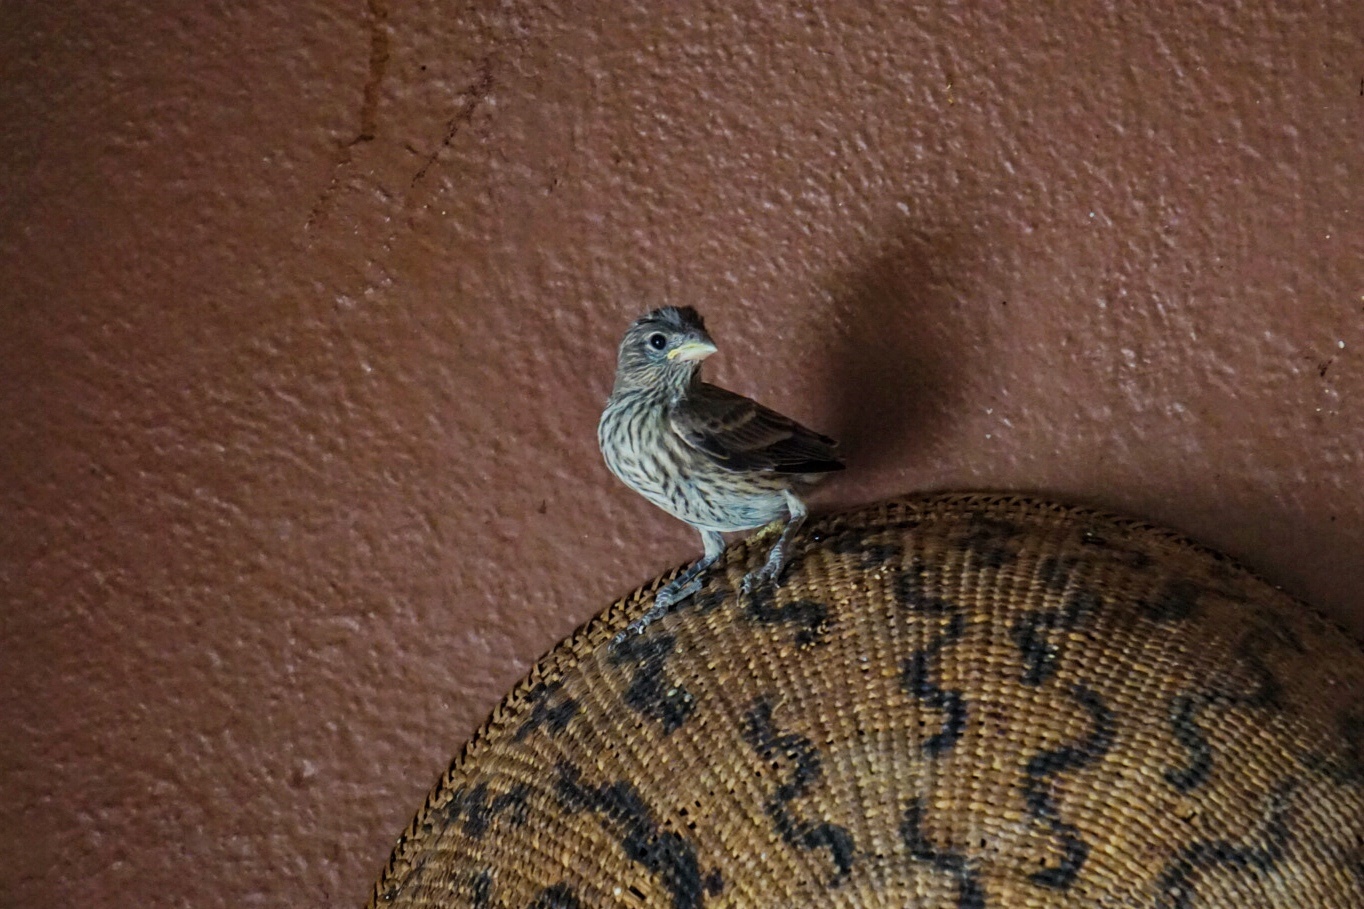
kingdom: Animalia
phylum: Chordata
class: Aves
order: Passeriformes
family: Fringillidae
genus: Haemorhous
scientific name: Haemorhous mexicanus
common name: House finch
